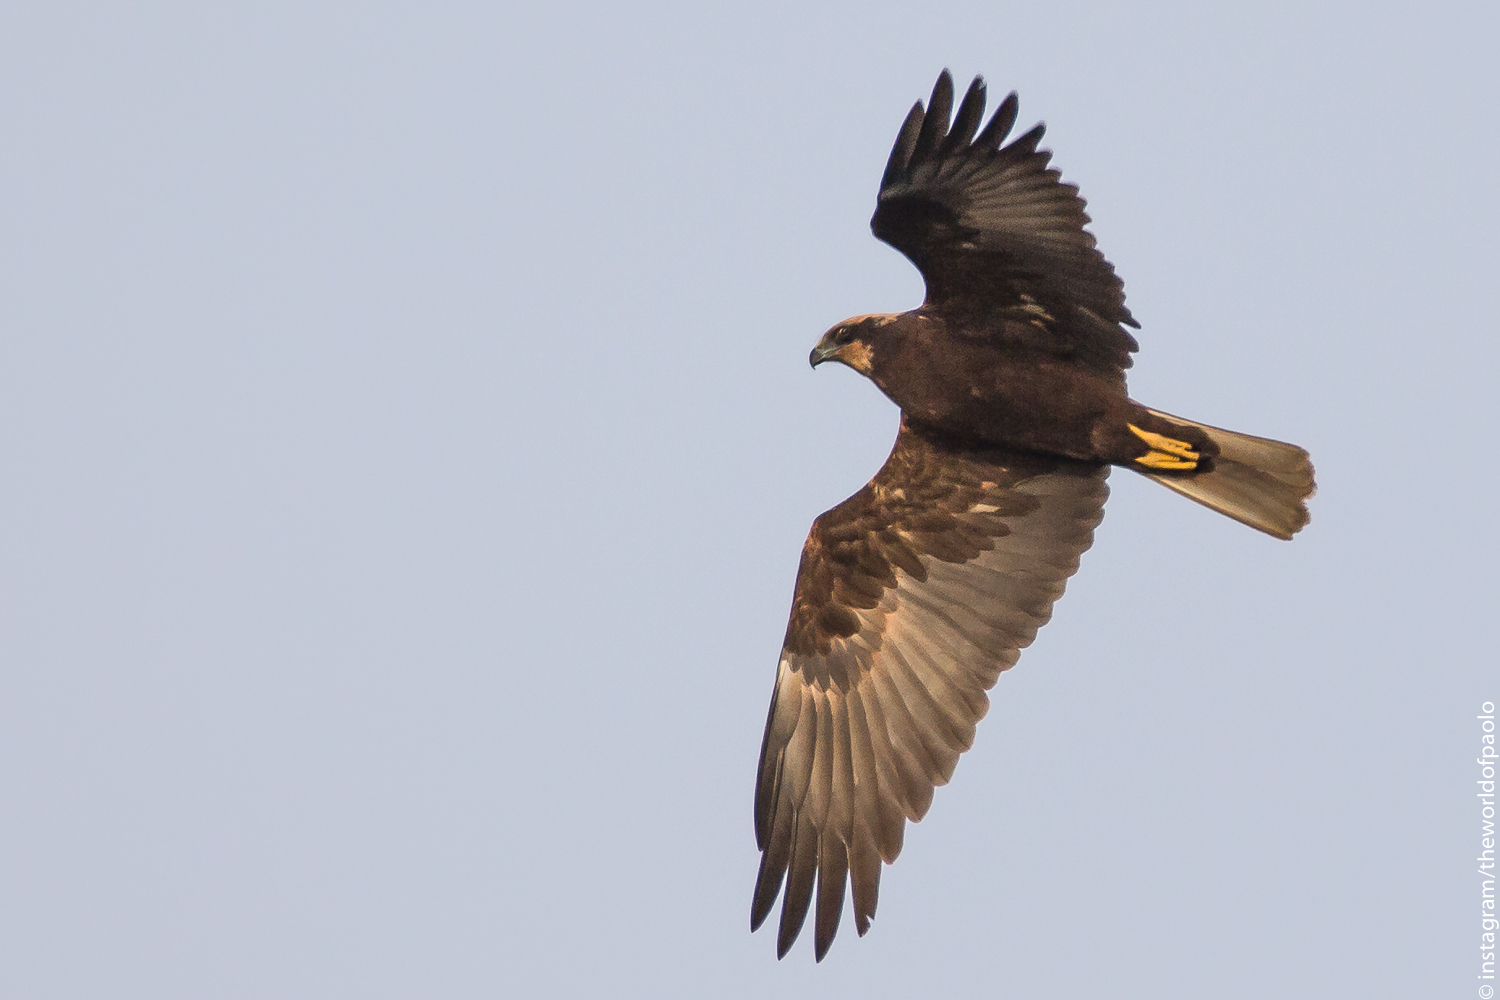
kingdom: Animalia
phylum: Chordata
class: Aves
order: Accipitriformes
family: Accipitridae
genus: Circus
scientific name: Circus aeruginosus
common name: Western marsh harrier
